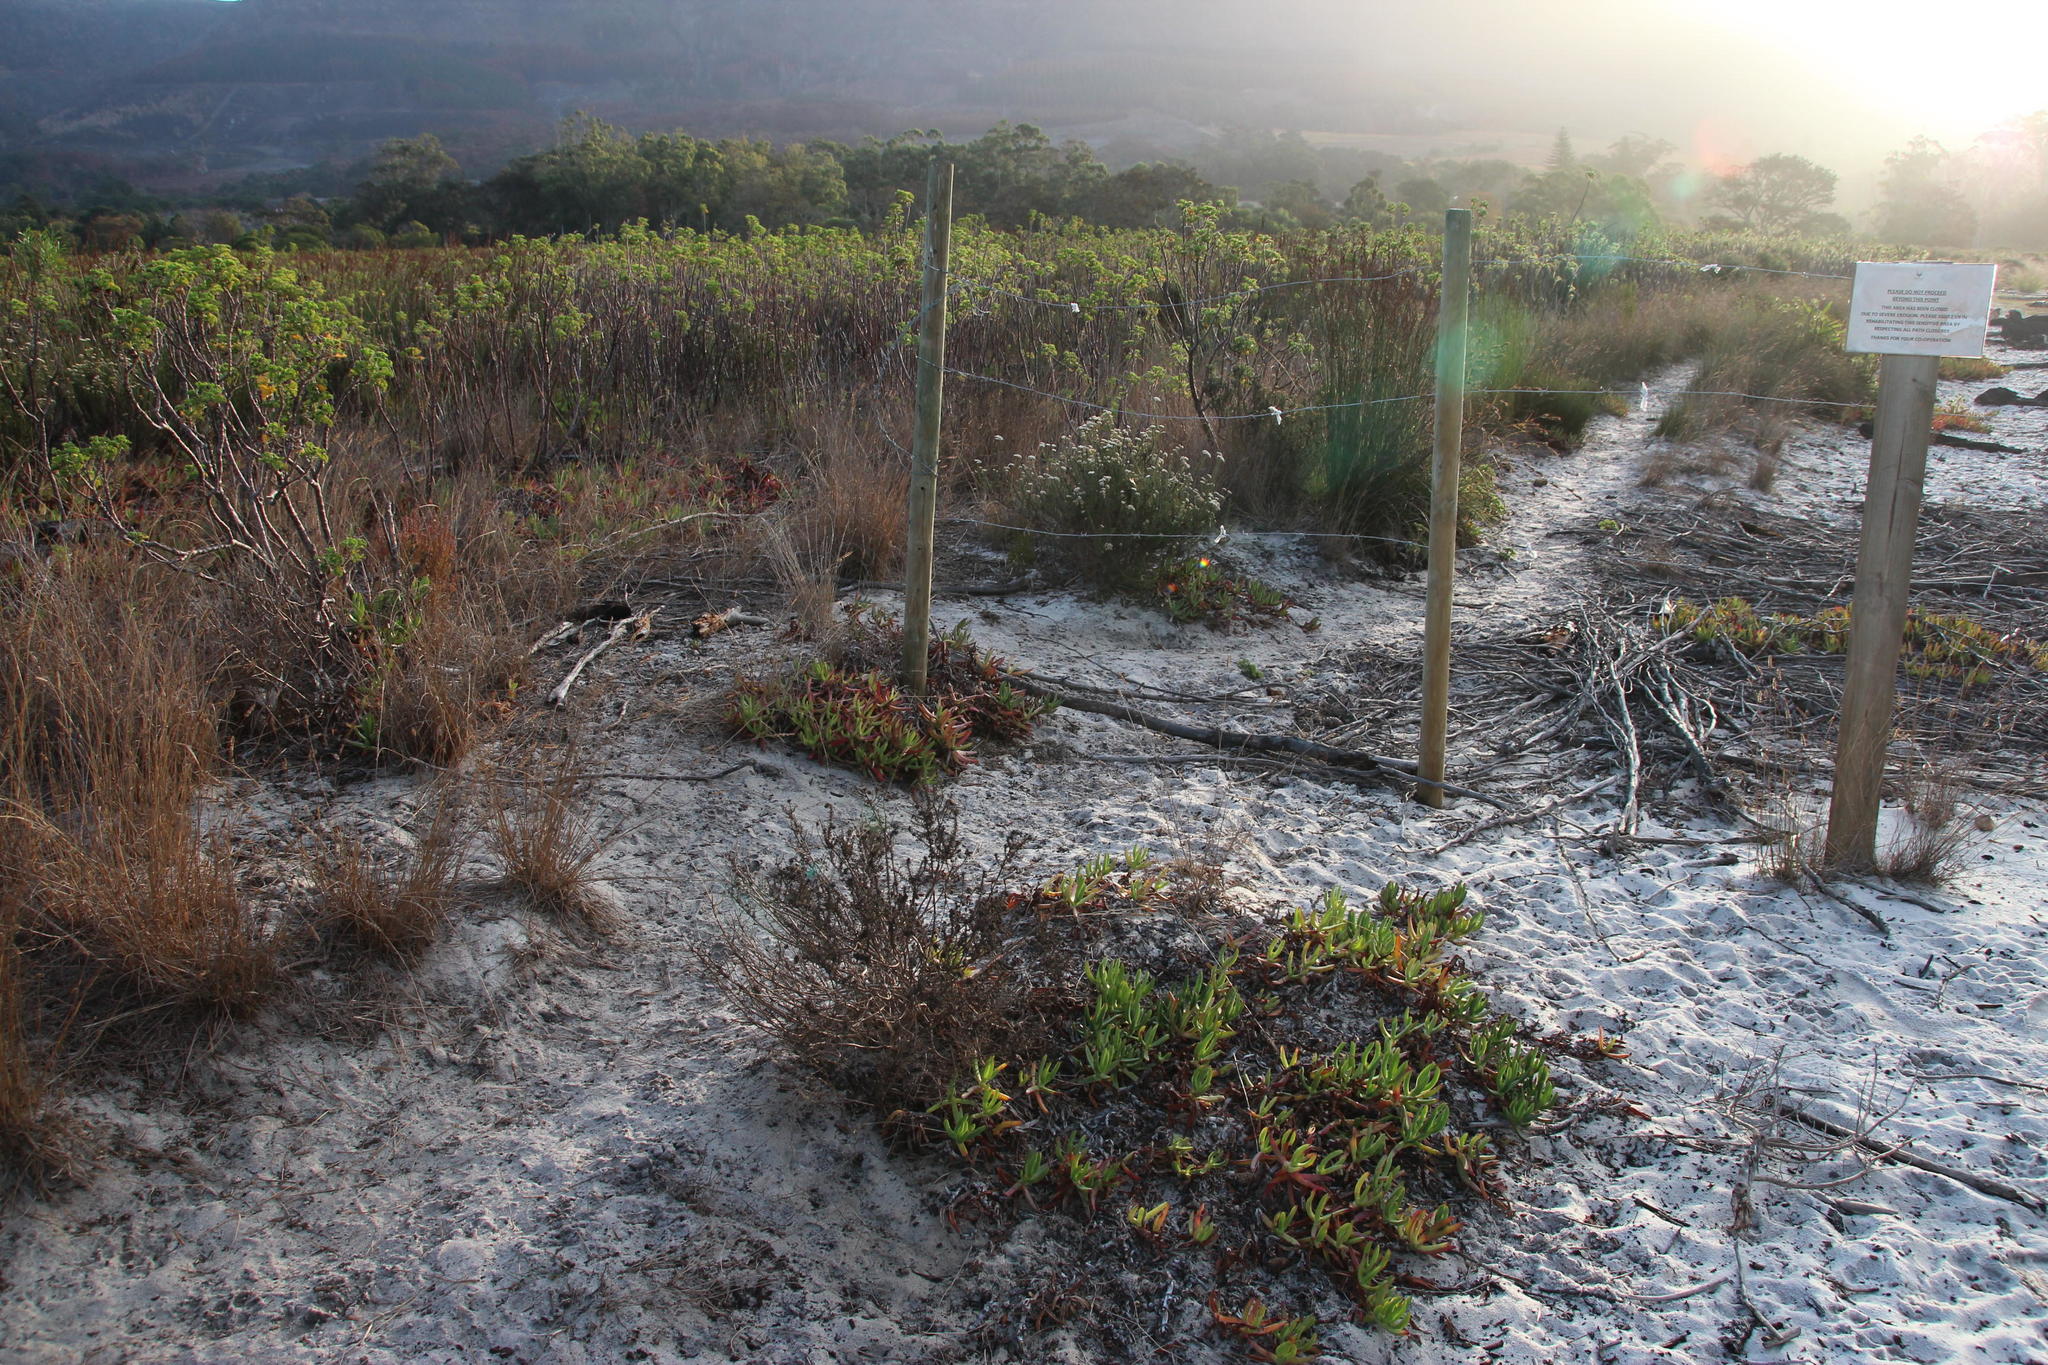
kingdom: Plantae
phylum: Tracheophyta
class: Magnoliopsida
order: Caryophyllales
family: Aizoaceae
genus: Carpobrotus
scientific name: Carpobrotus edulis
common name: Hottentot-fig
